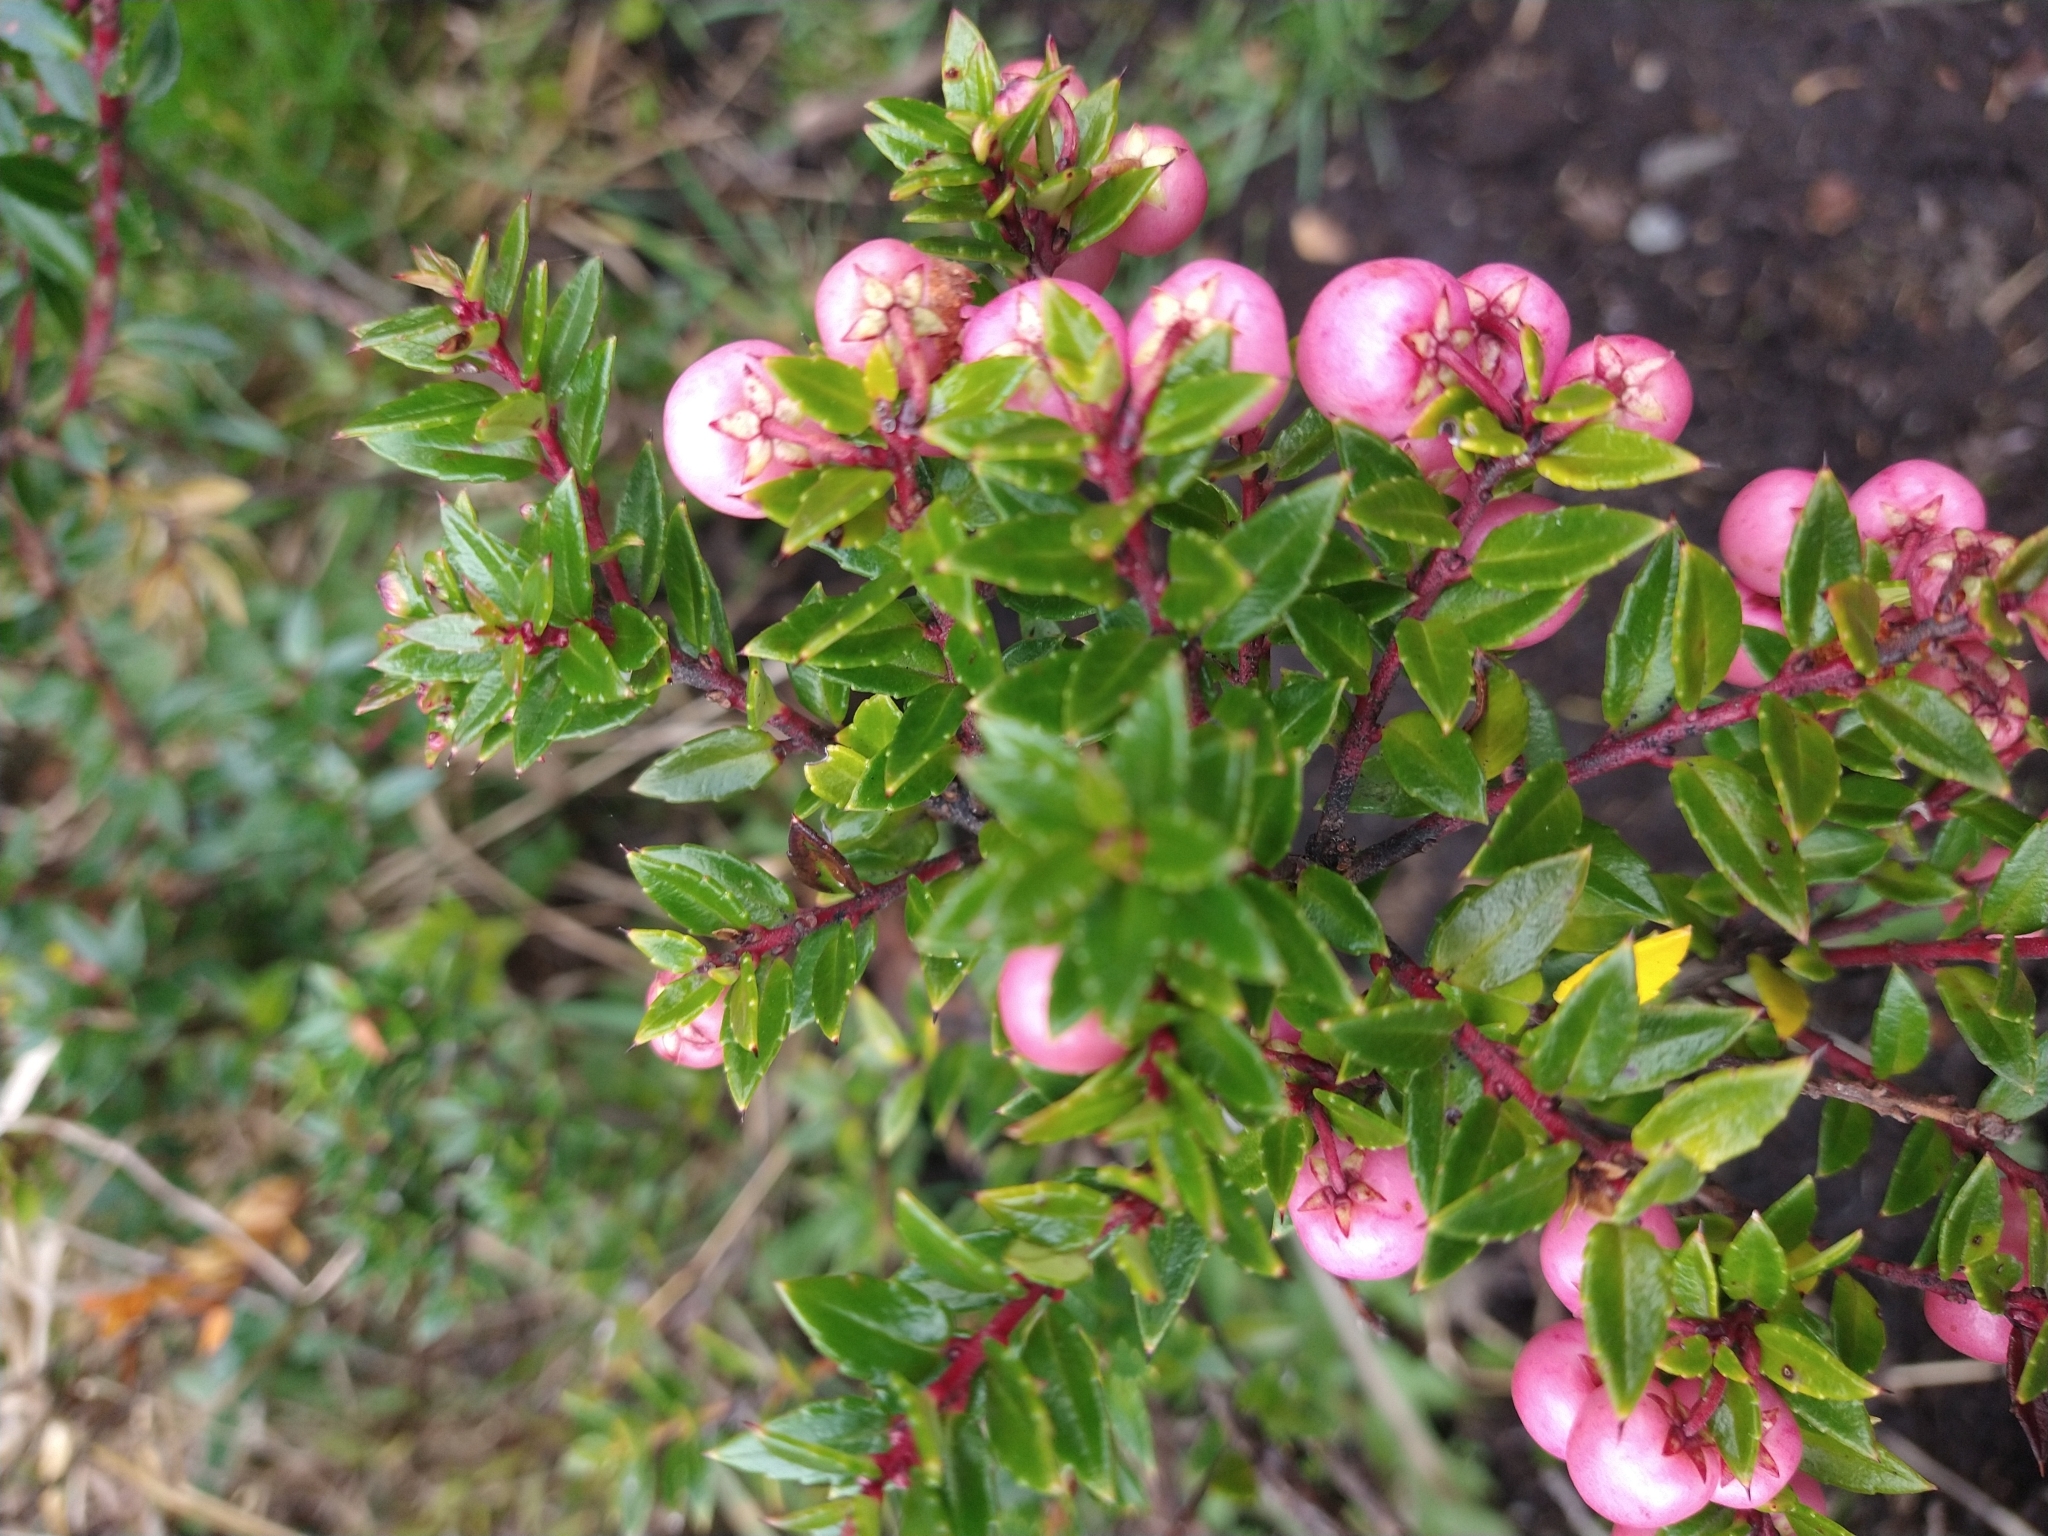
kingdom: Plantae
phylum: Tracheophyta
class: Magnoliopsida
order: Ericales
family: Ericaceae
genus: Gaultheria
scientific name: Gaultheria mucronata
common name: Prickly heath
